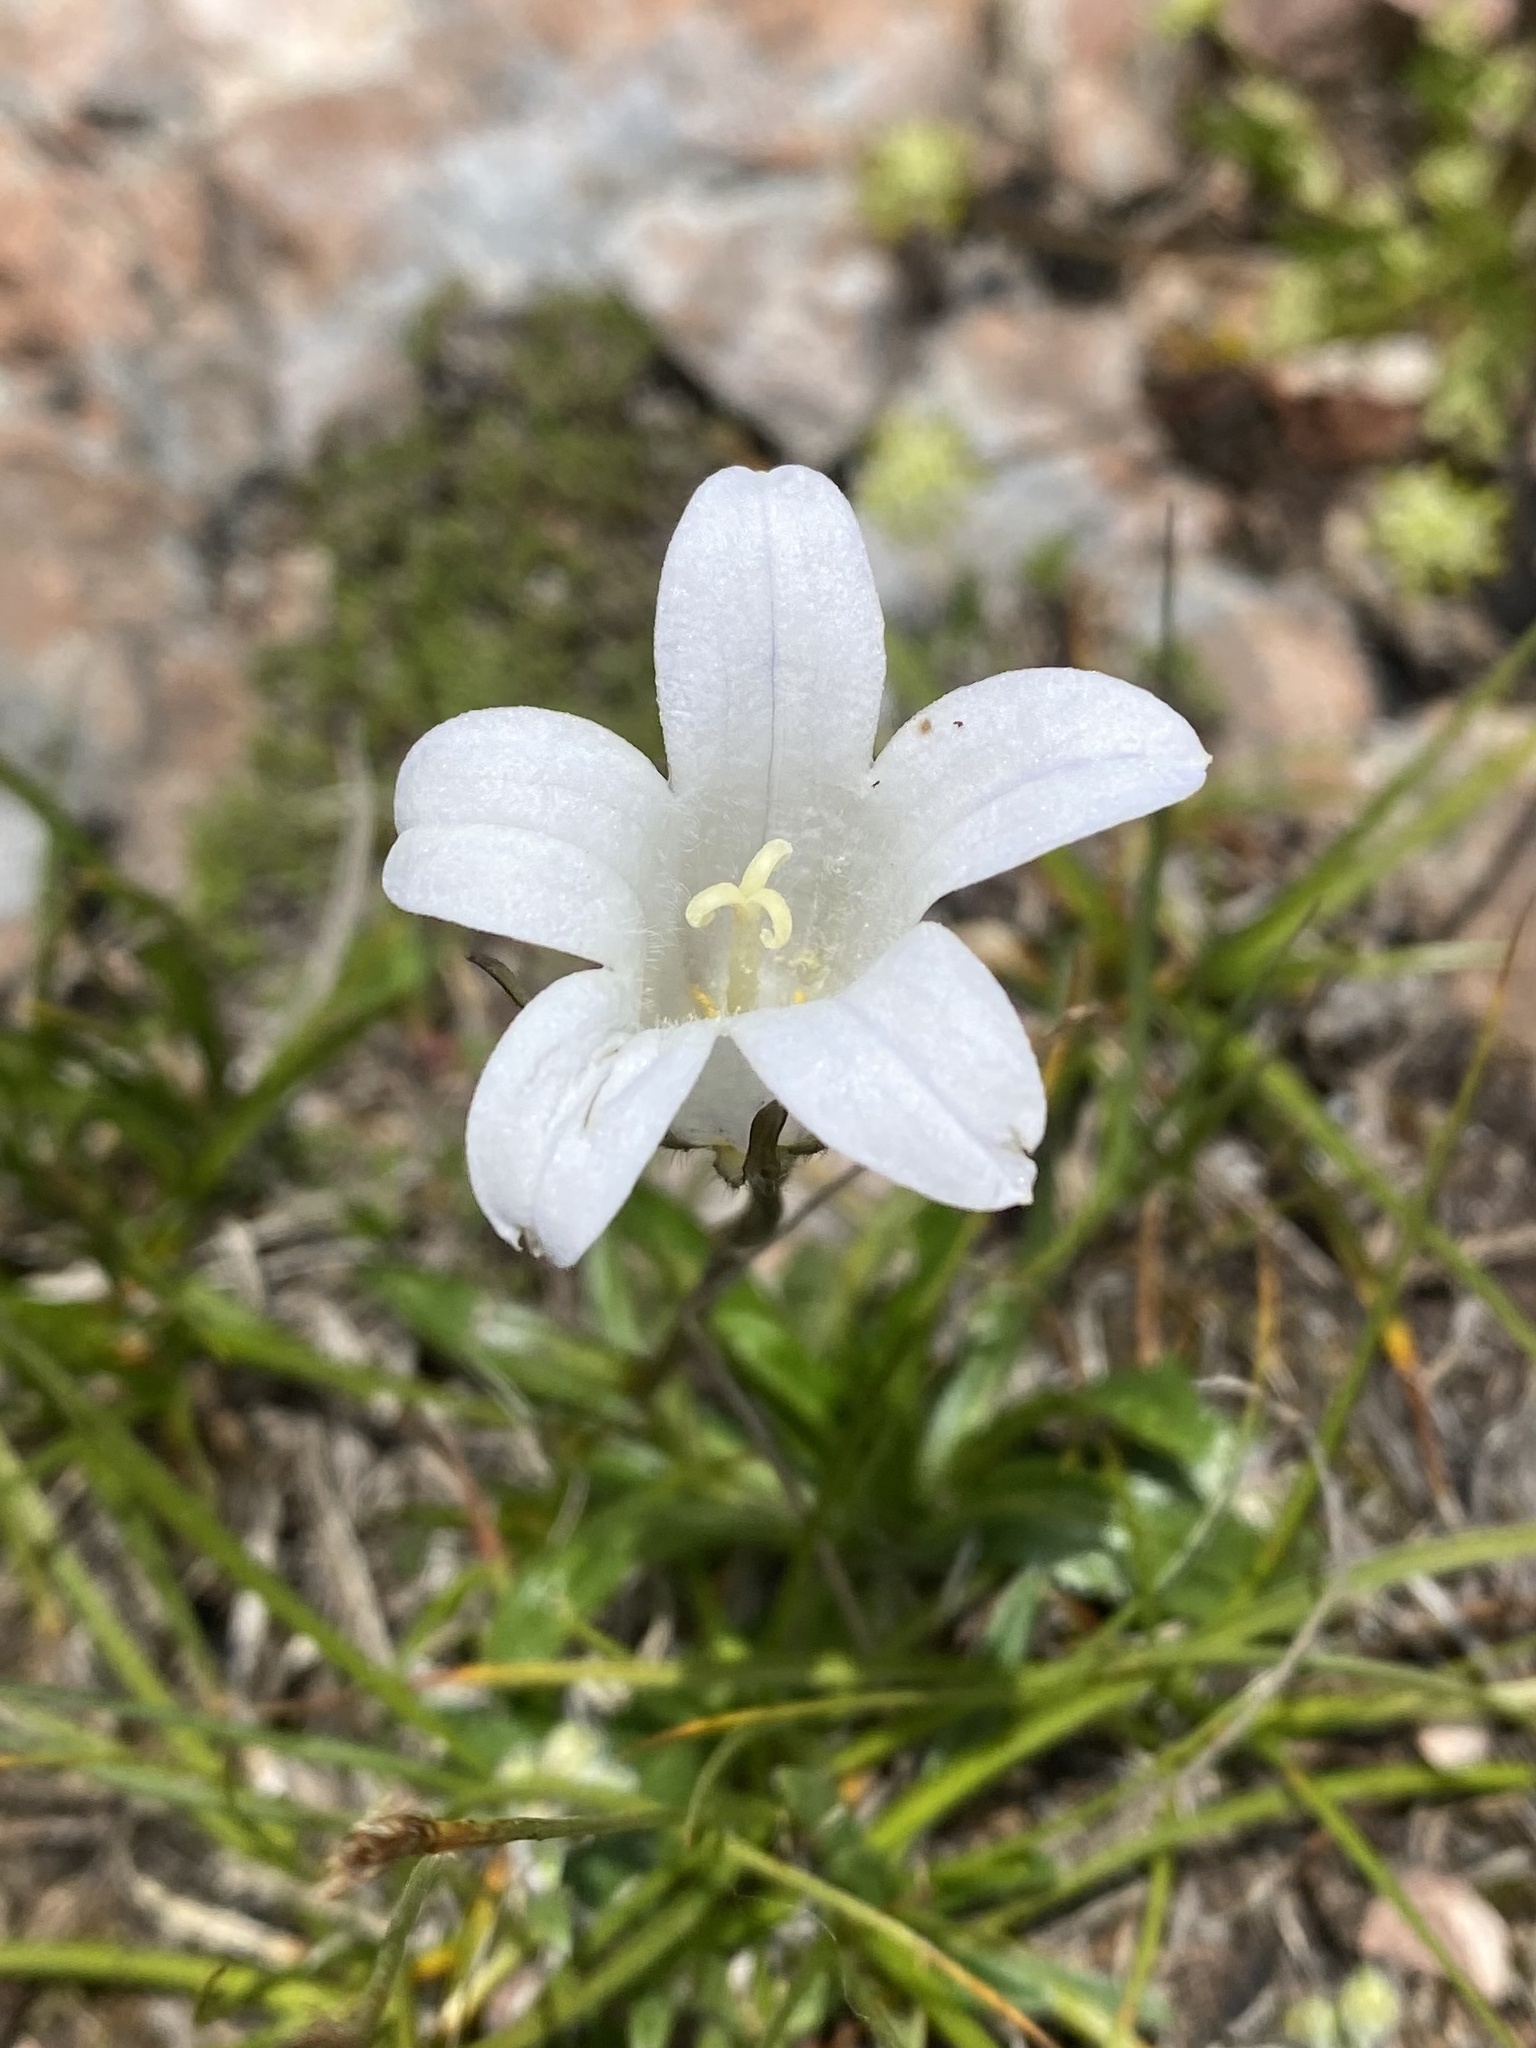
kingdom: Plantae
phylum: Tracheophyta
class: Magnoliopsida
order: Asterales
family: Campanulaceae
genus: Campanula
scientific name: Campanula ciliata
